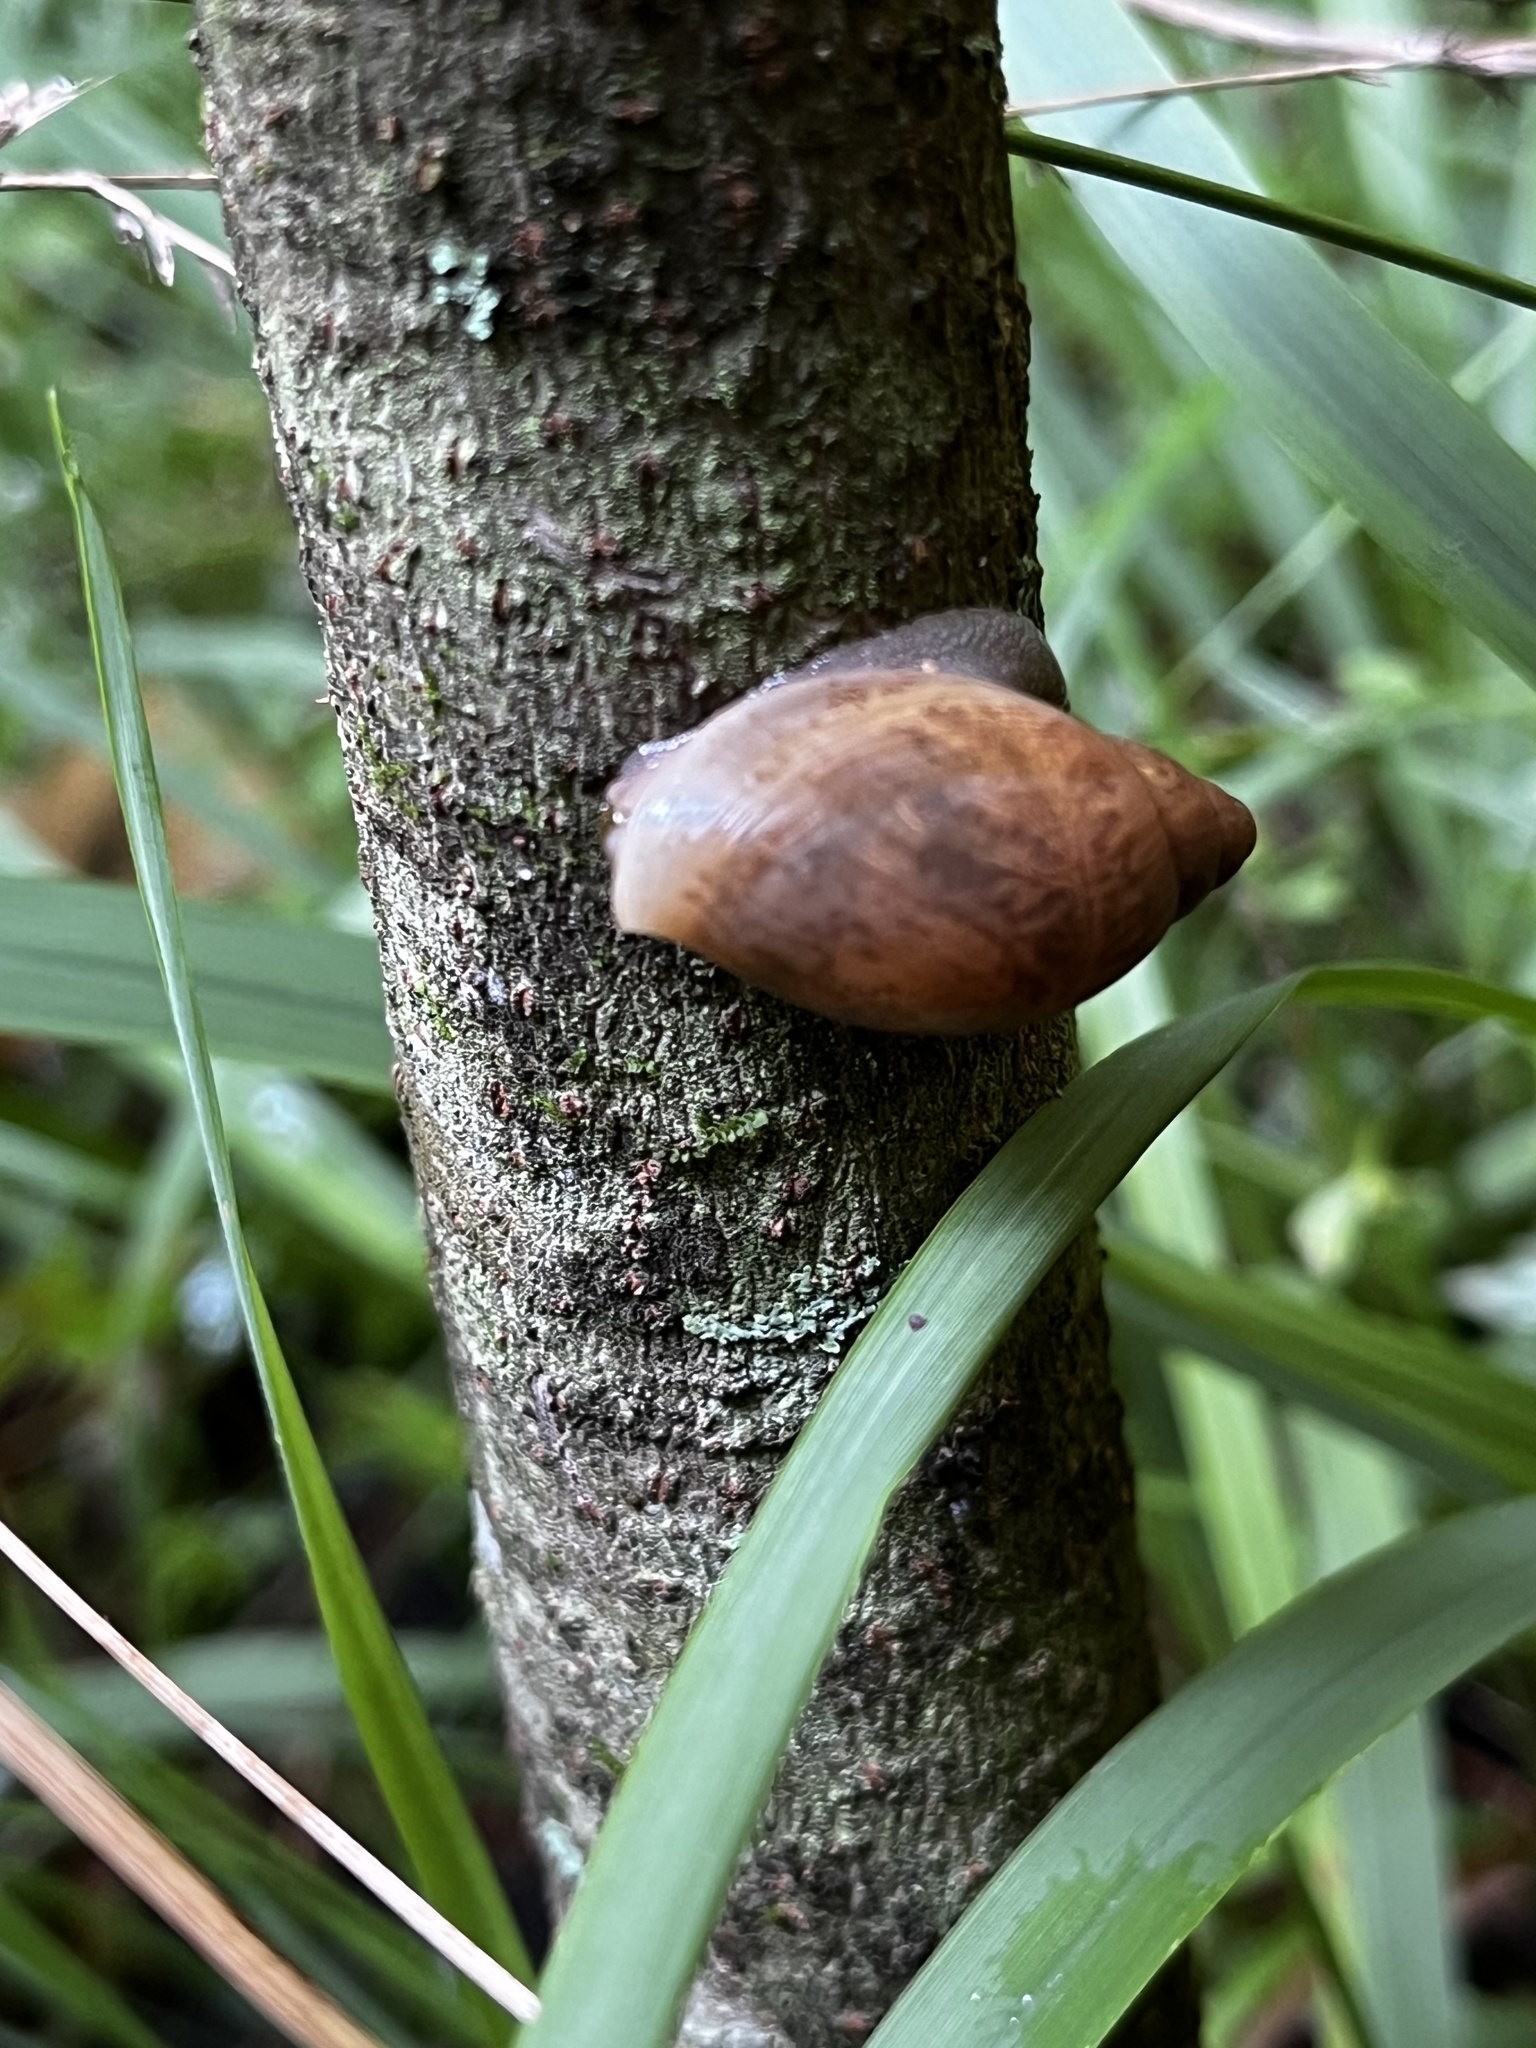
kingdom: Animalia
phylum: Mollusca
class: Gastropoda
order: Stylommatophora
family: Spiraxidae
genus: Euglandina
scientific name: Euglandina rosea
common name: Rosy wolfsnail
